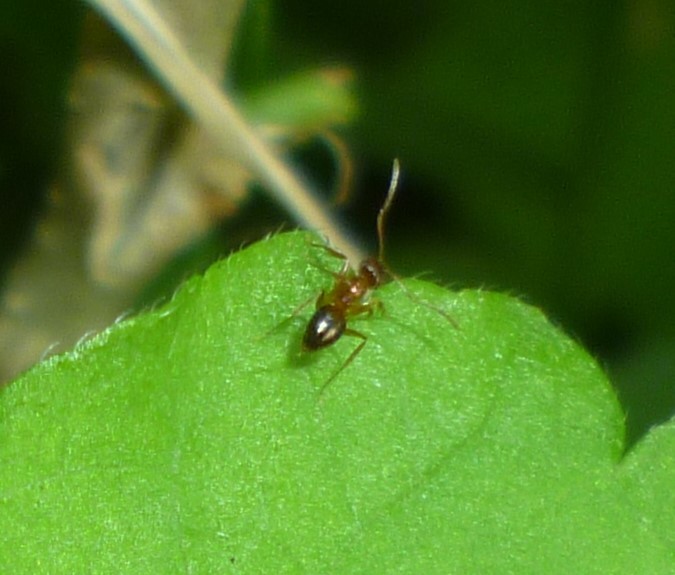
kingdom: Animalia
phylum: Arthropoda
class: Insecta
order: Hymenoptera
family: Formicidae
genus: Paratrechina
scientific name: Paratrechina flavipes
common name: Eastern asian formicine ant
